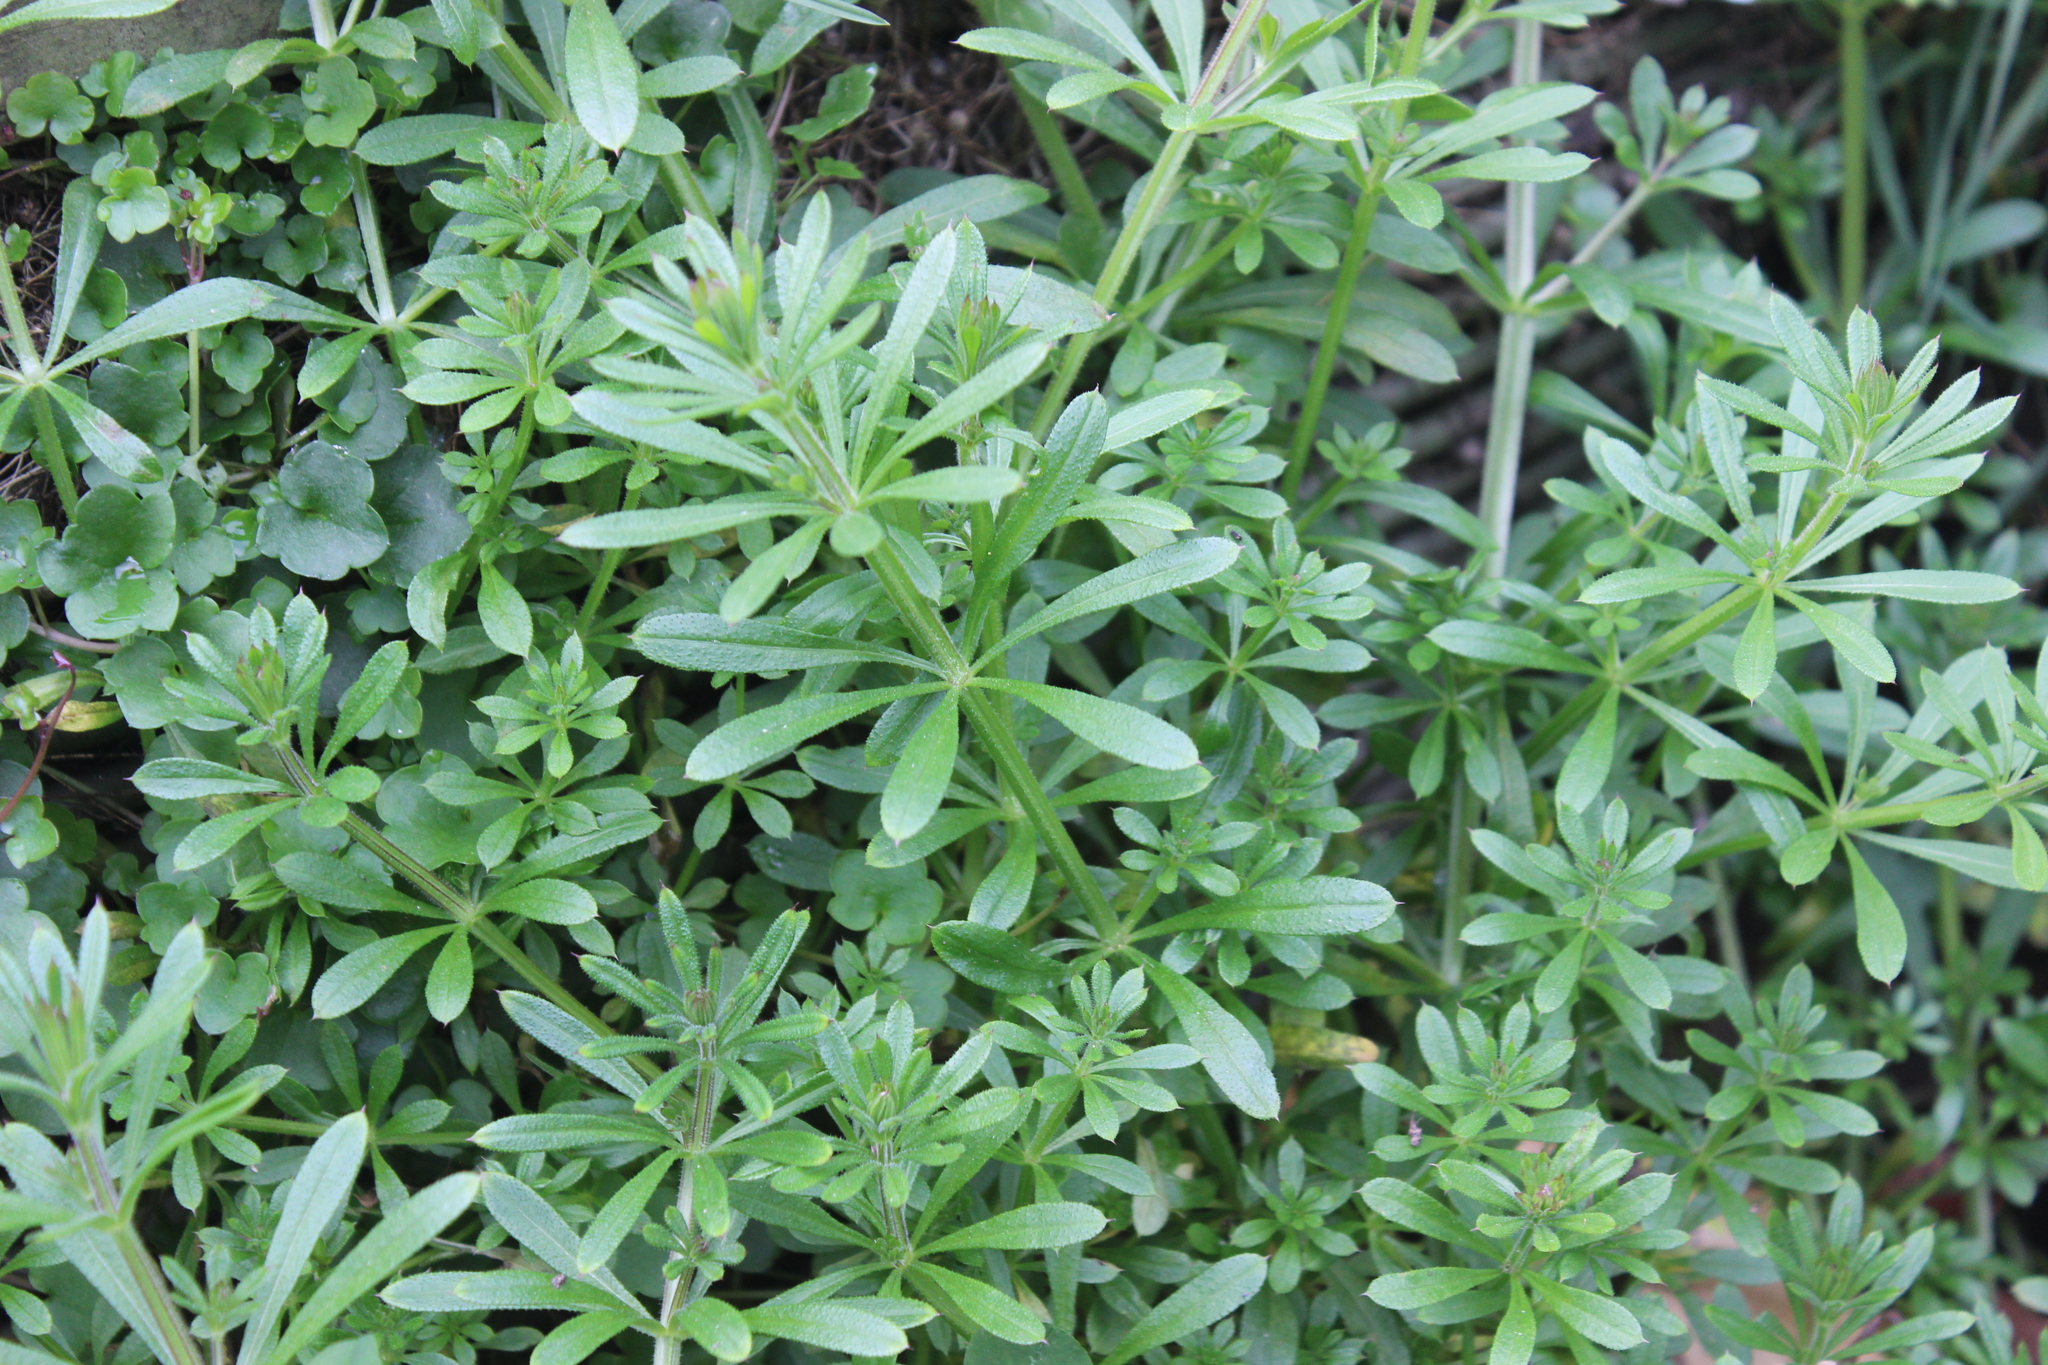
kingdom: Plantae
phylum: Tracheophyta
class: Magnoliopsida
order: Gentianales
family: Rubiaceae
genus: Galium
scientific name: Galium aparine
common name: Cleavers
